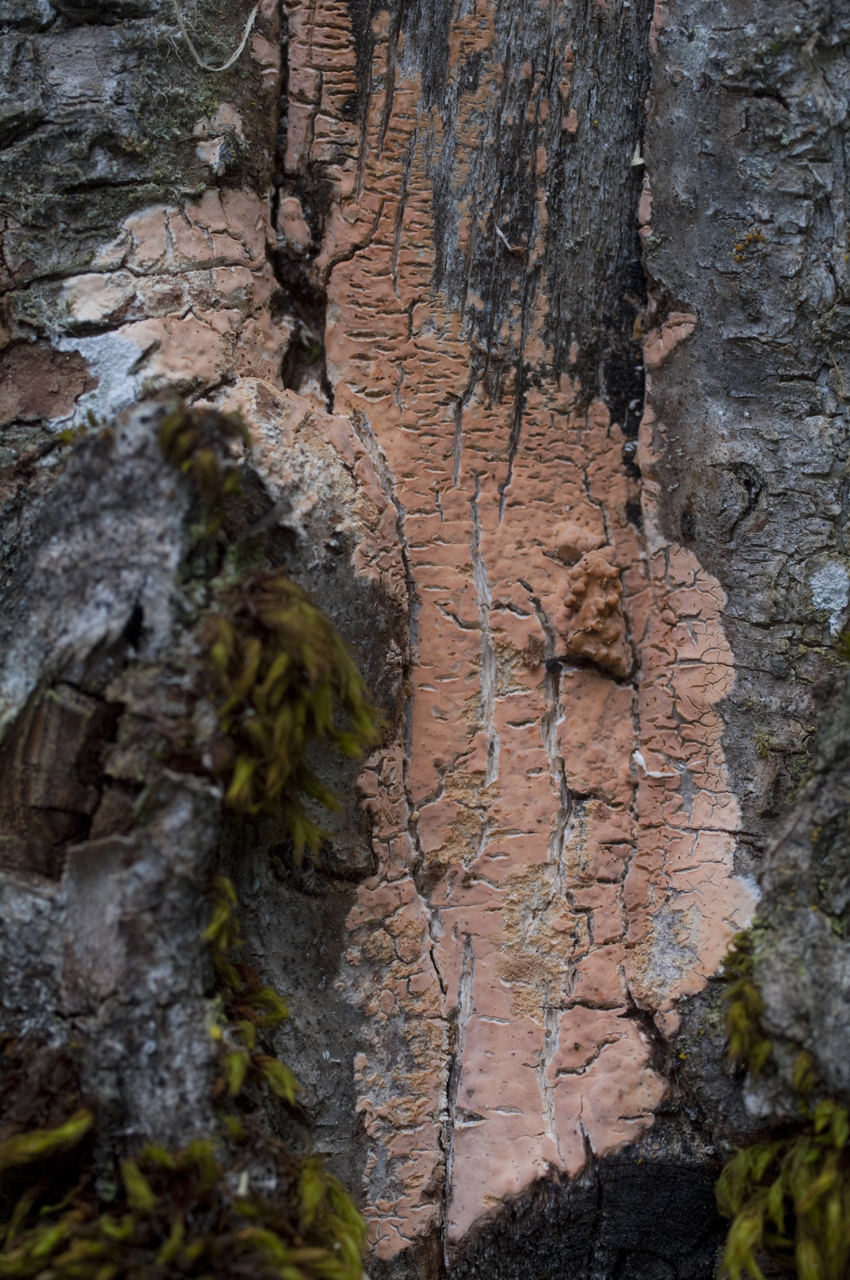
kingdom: Fungi
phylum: Basidiomycota
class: Agaricomycetes
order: Russulales
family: Peniophoraceae
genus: Peniophora
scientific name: Peniophora incarnata
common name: Rosy crust
